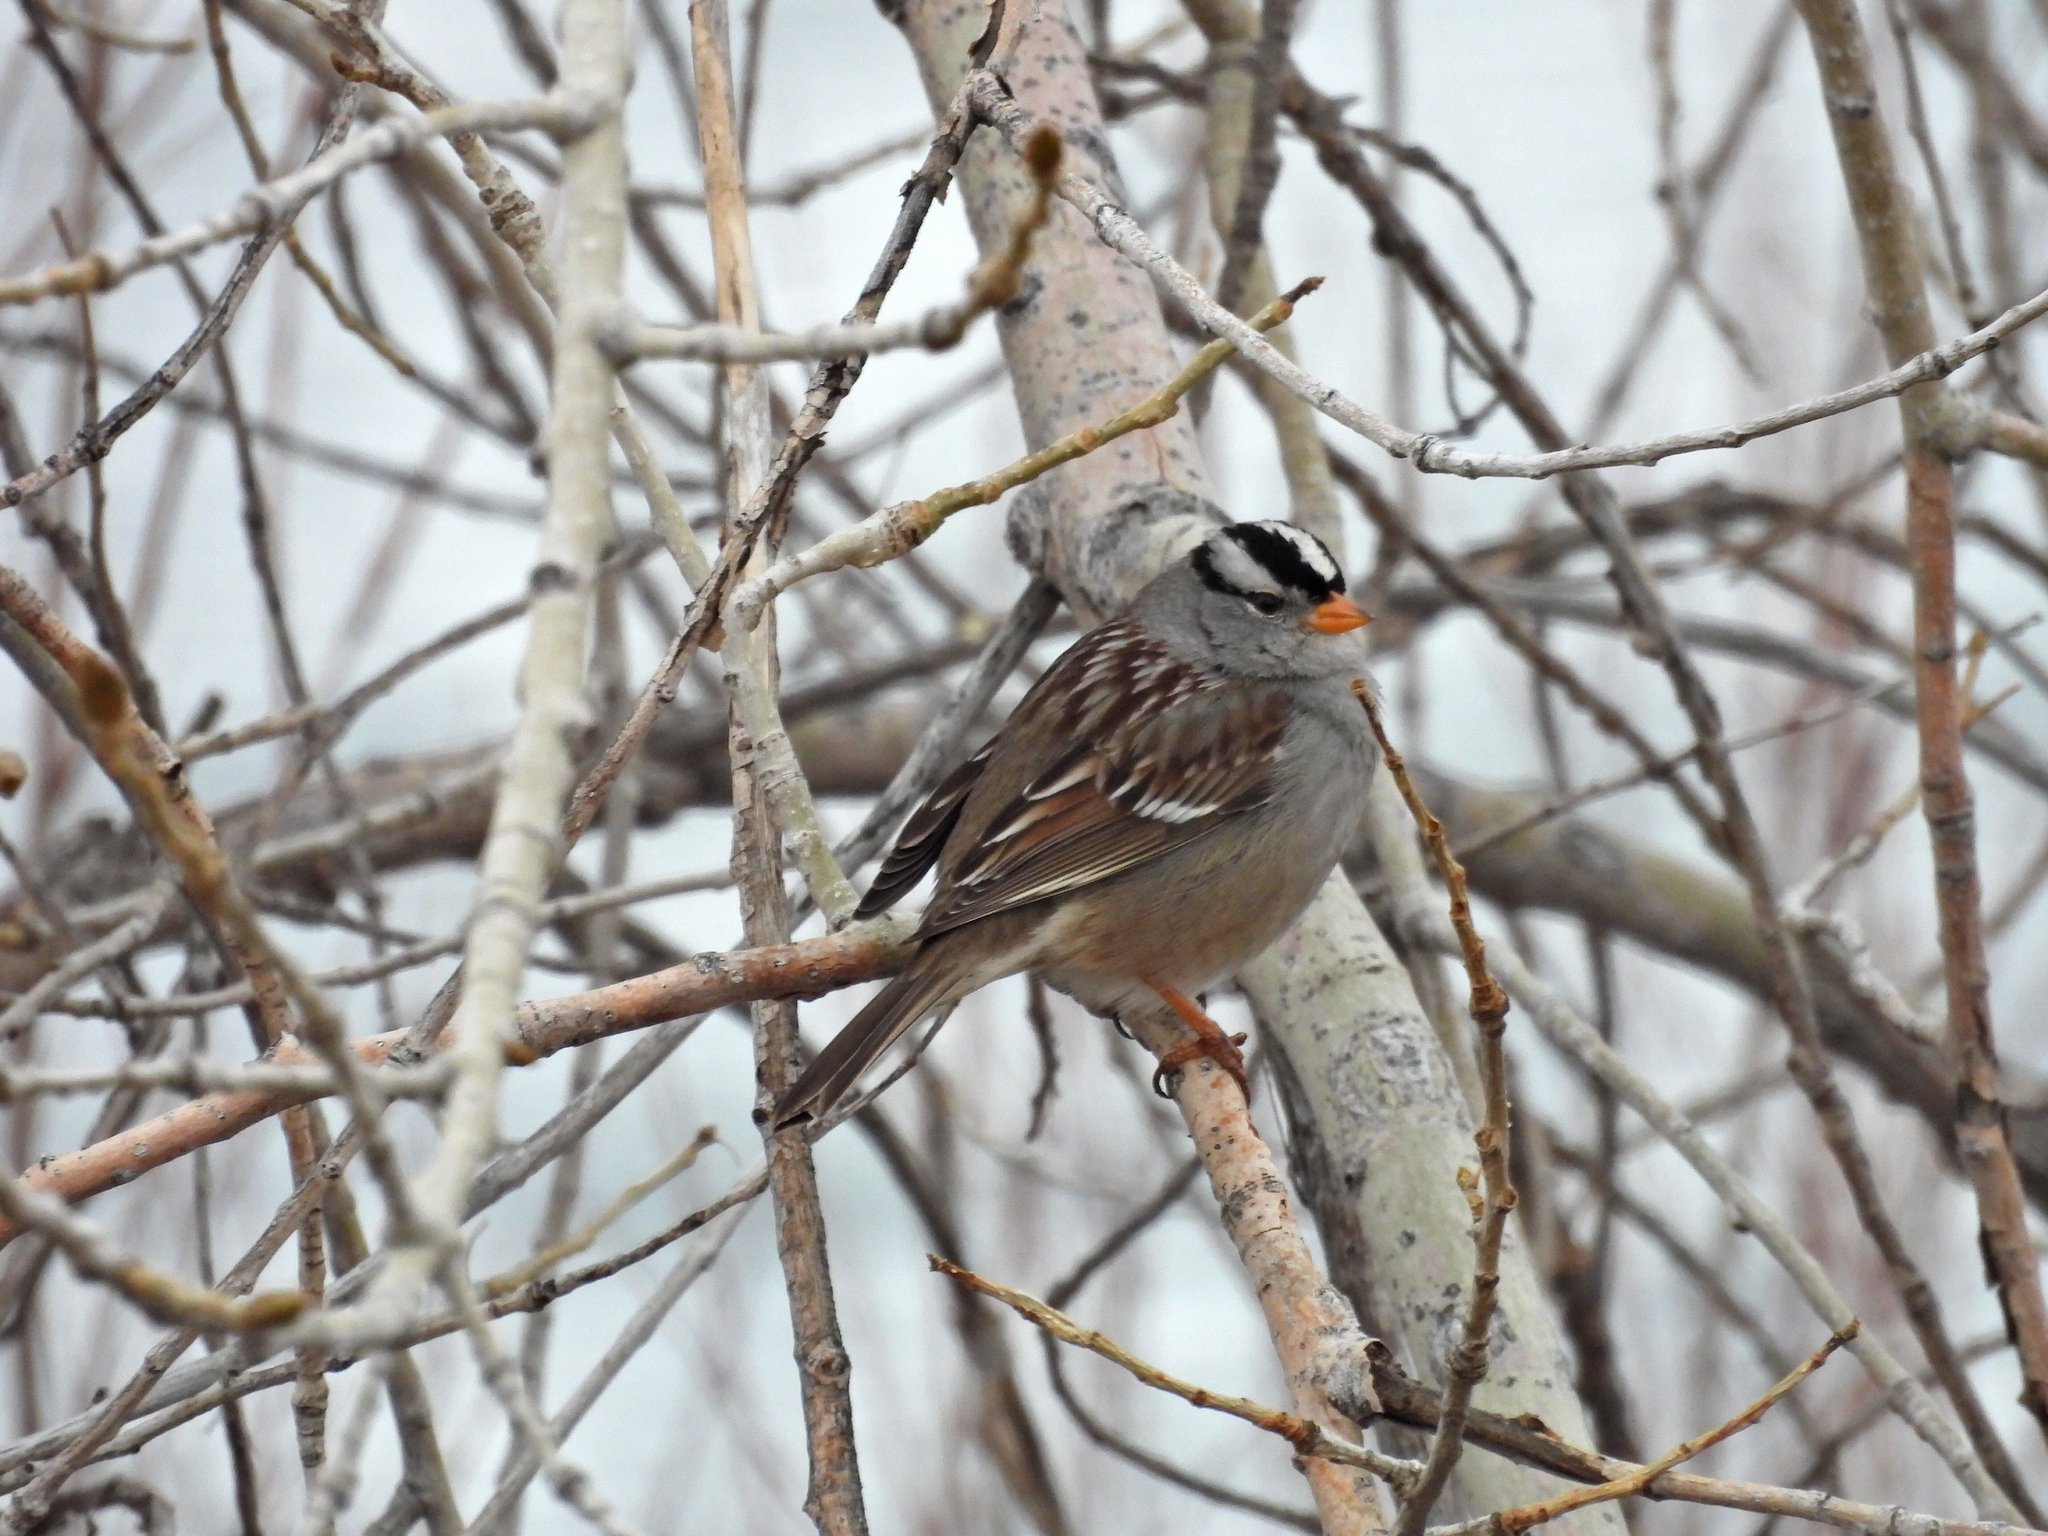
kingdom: Animalia
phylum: Chordata
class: Aves
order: Passeriformes
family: Passerellidae
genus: Zonotrichia
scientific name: Zonotrichia leucophrys
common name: White-crowned sparrow
